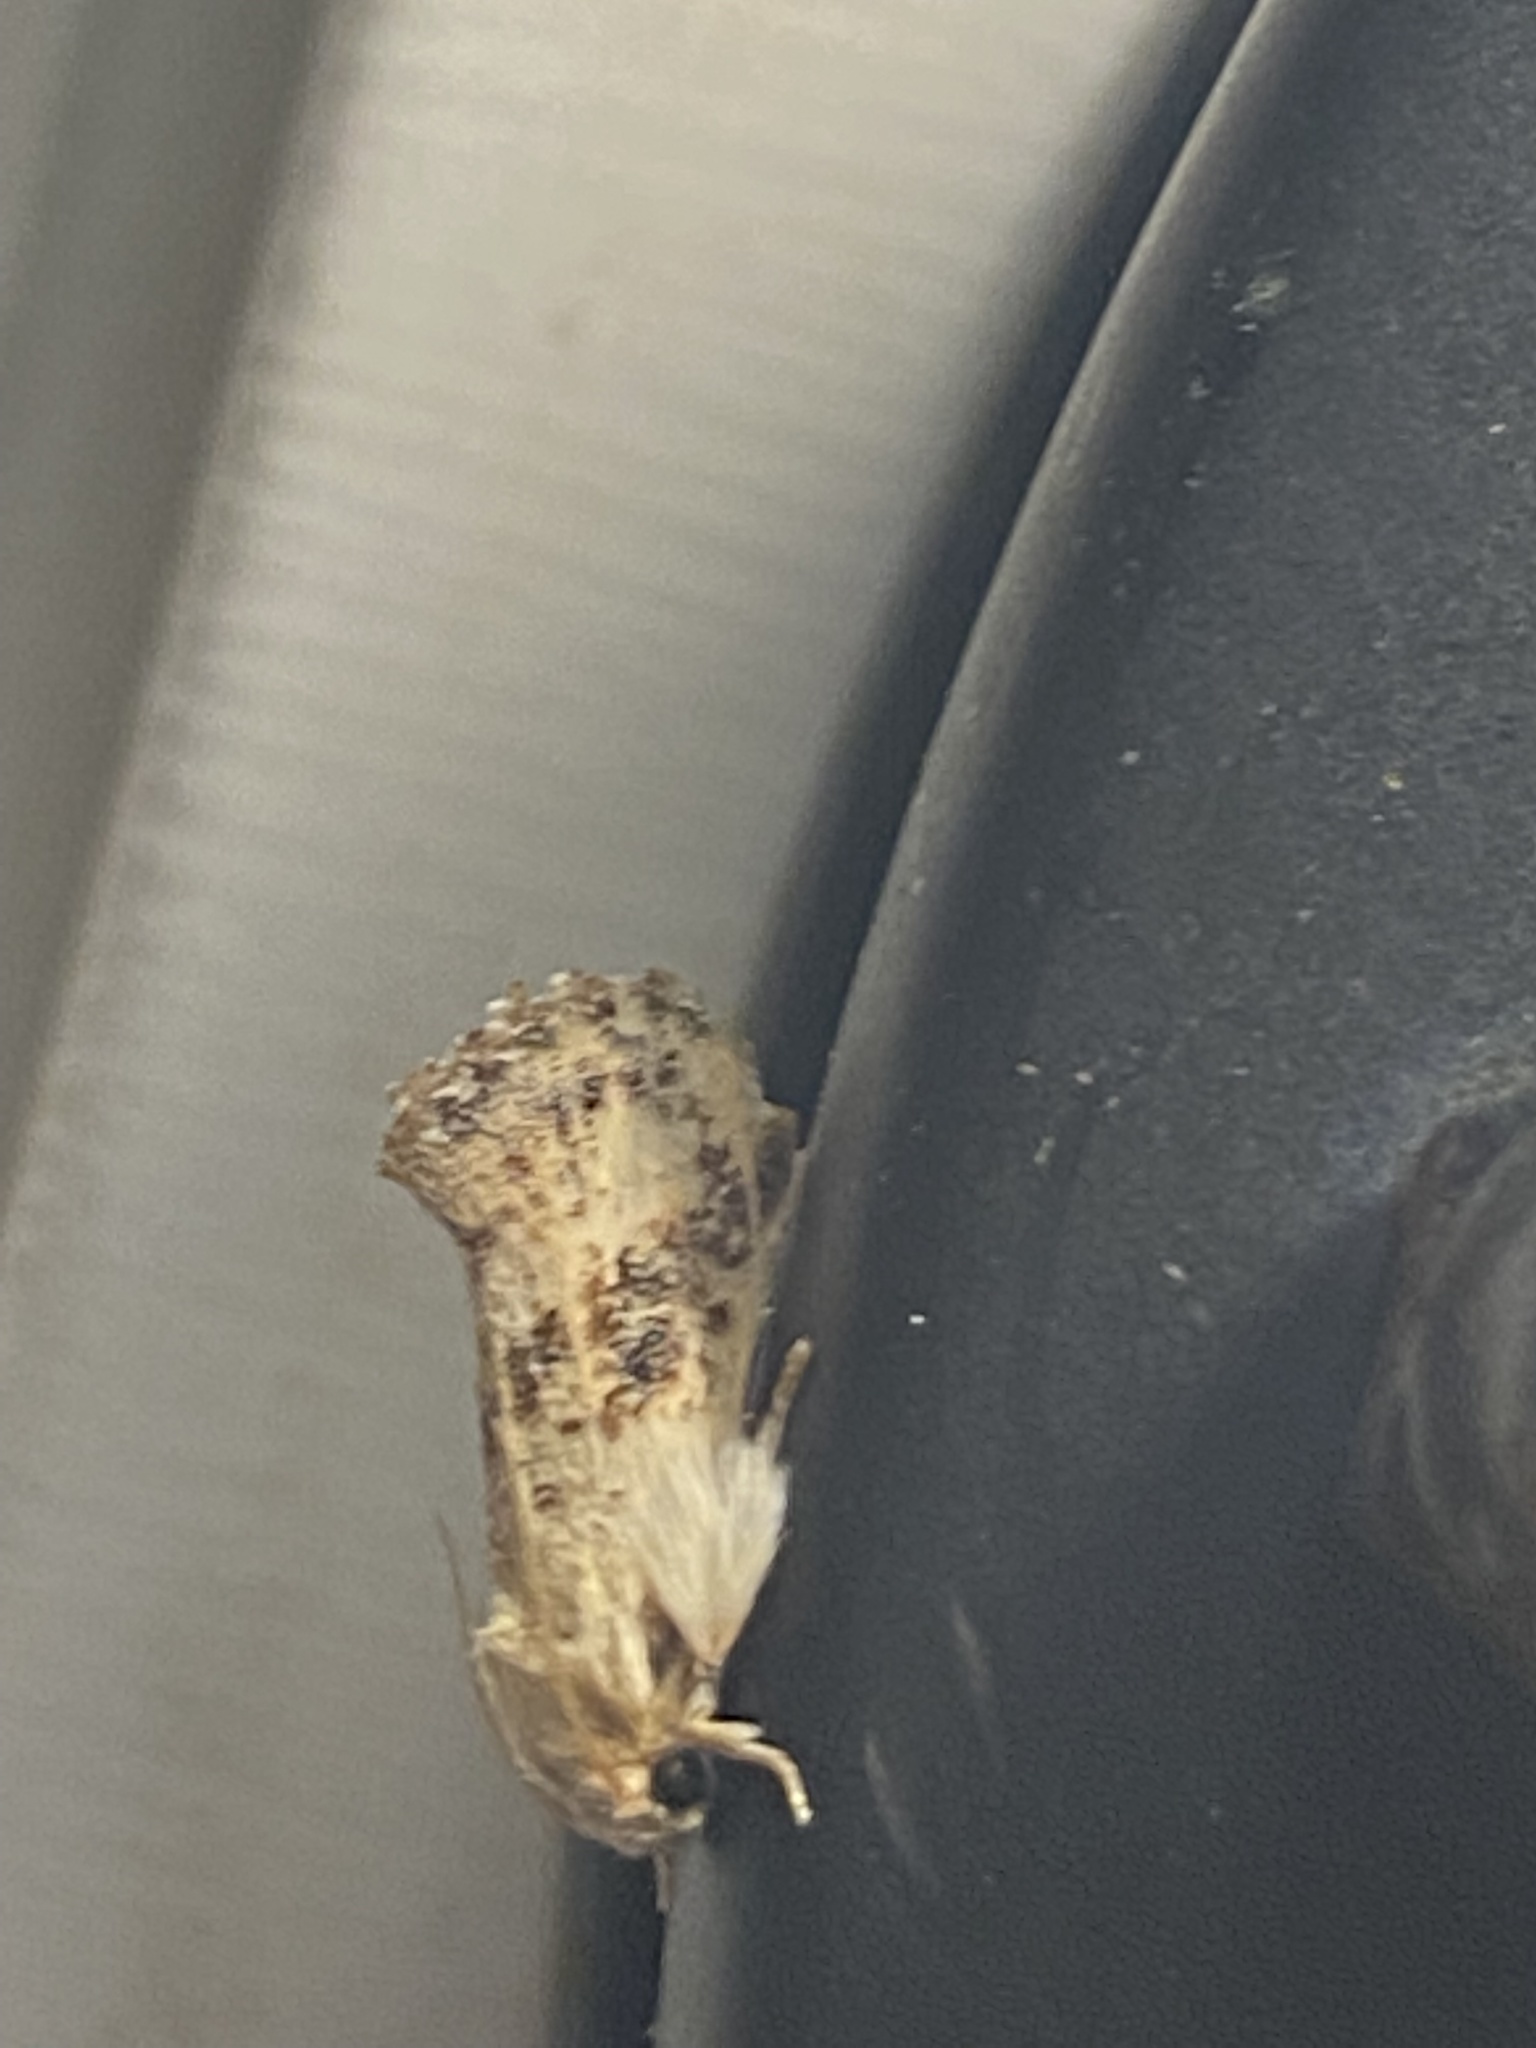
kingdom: Animalia
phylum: Arthropoda
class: Insecta
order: Lepidoptera
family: Tineidae
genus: Acrolophus
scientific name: Acrolophus mycetophagus
